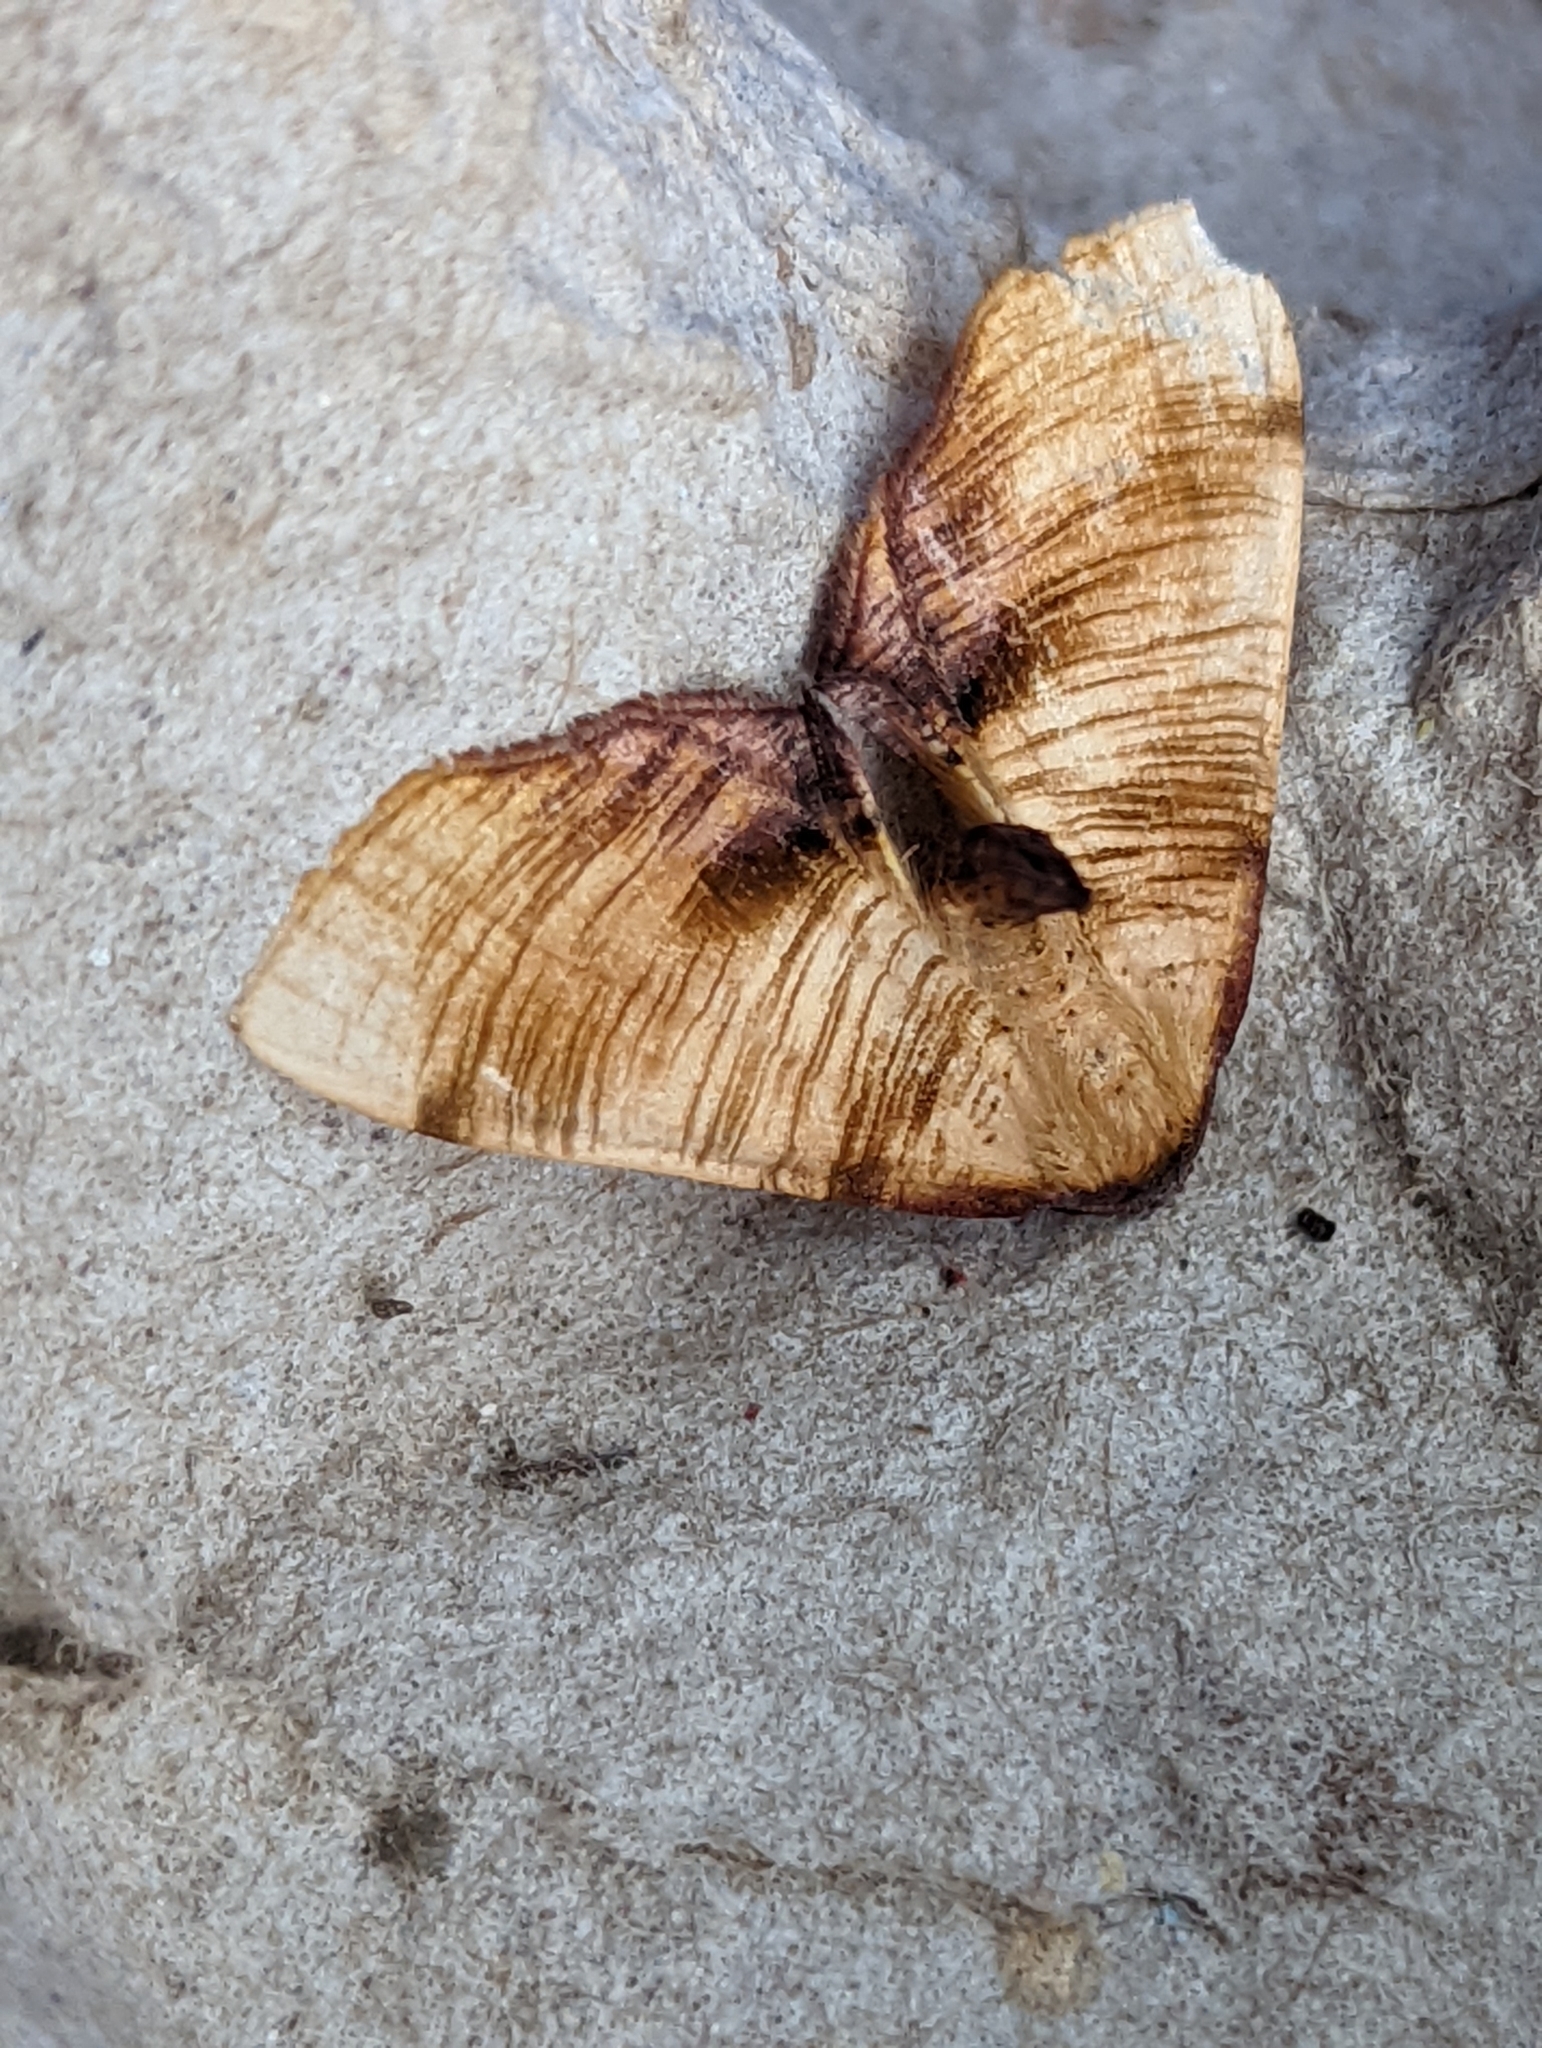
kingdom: Animalia
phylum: Arthropoda
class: Insecta
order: Lepidoptera
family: Geometridae
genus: Plagodis
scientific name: Plagodis dolabraria
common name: Scorched wing
